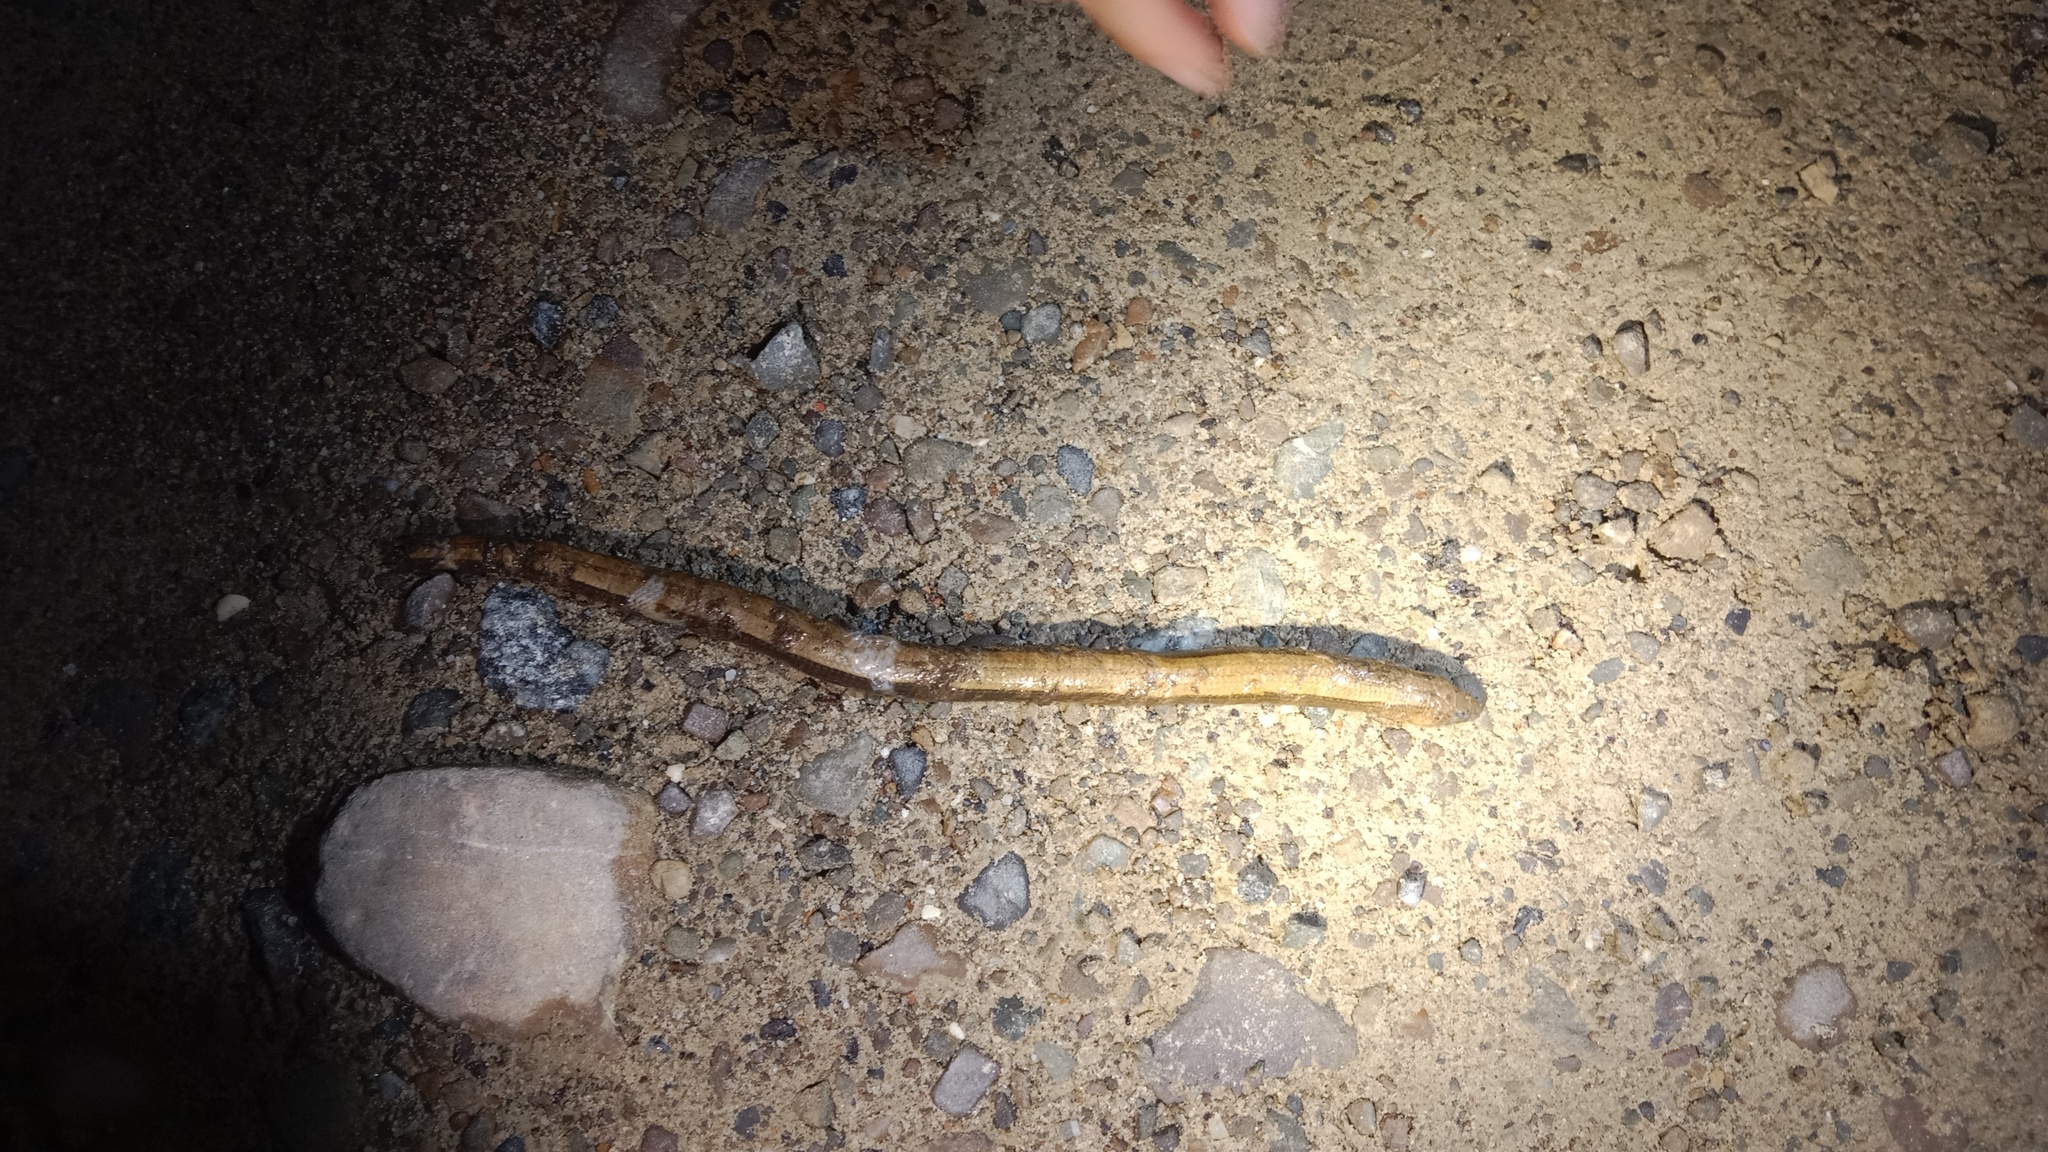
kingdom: Animalia
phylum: Chordata
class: Squamata
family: Anguidae
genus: Anguis
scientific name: Anguis colchica
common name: Slow worm
